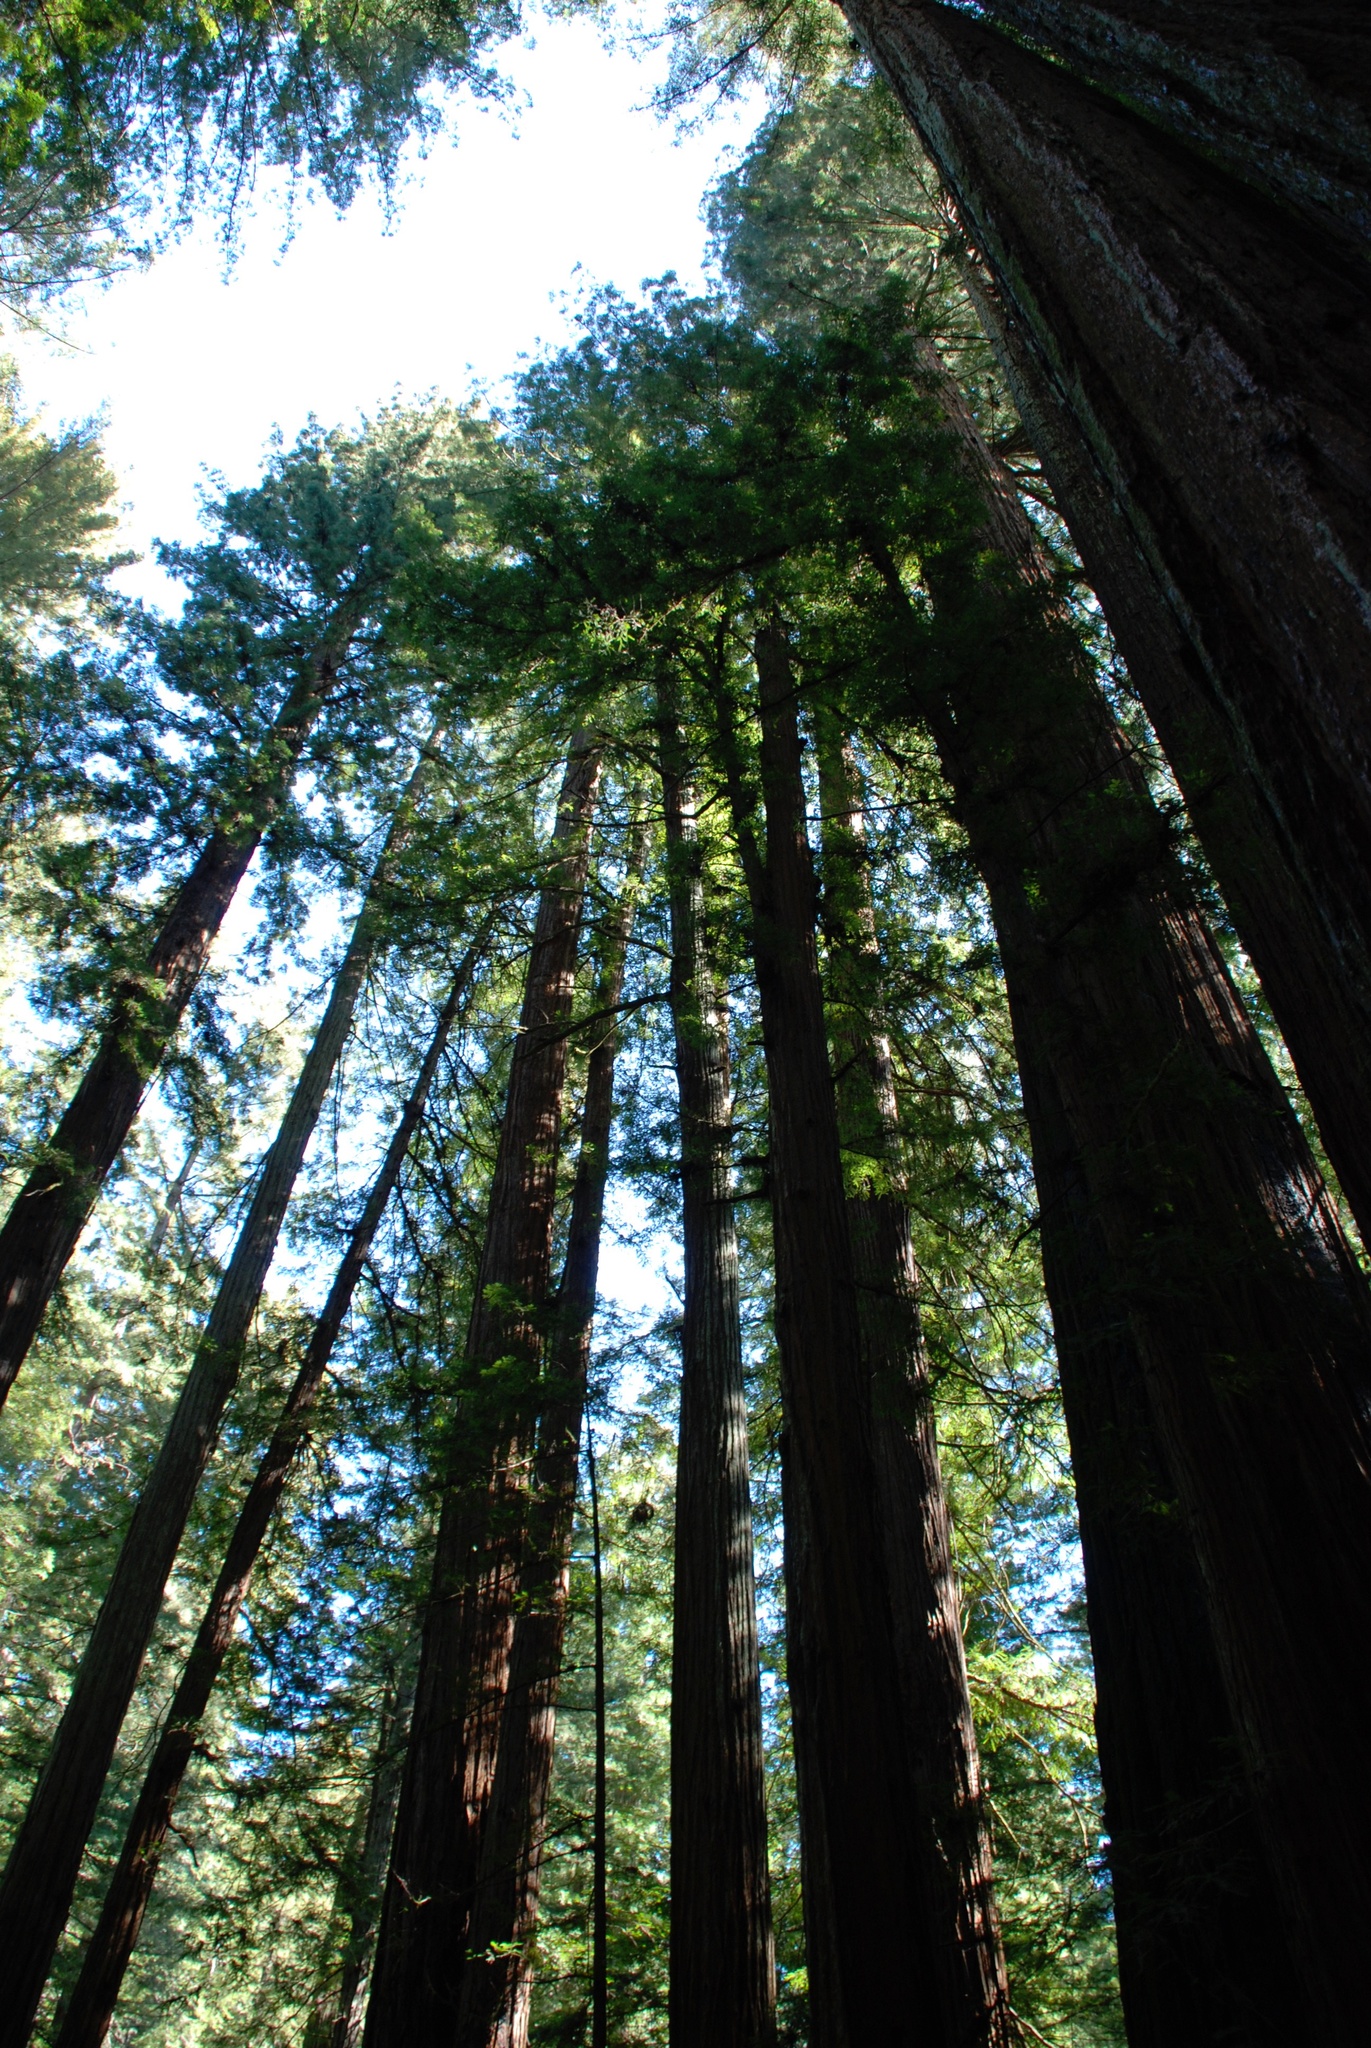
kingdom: Plantae
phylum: Tracheophyta
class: Pinopsida
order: Pinales
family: Cupressaceae
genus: Sequoia
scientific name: Sequoia sempervirens
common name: Coast redwood
